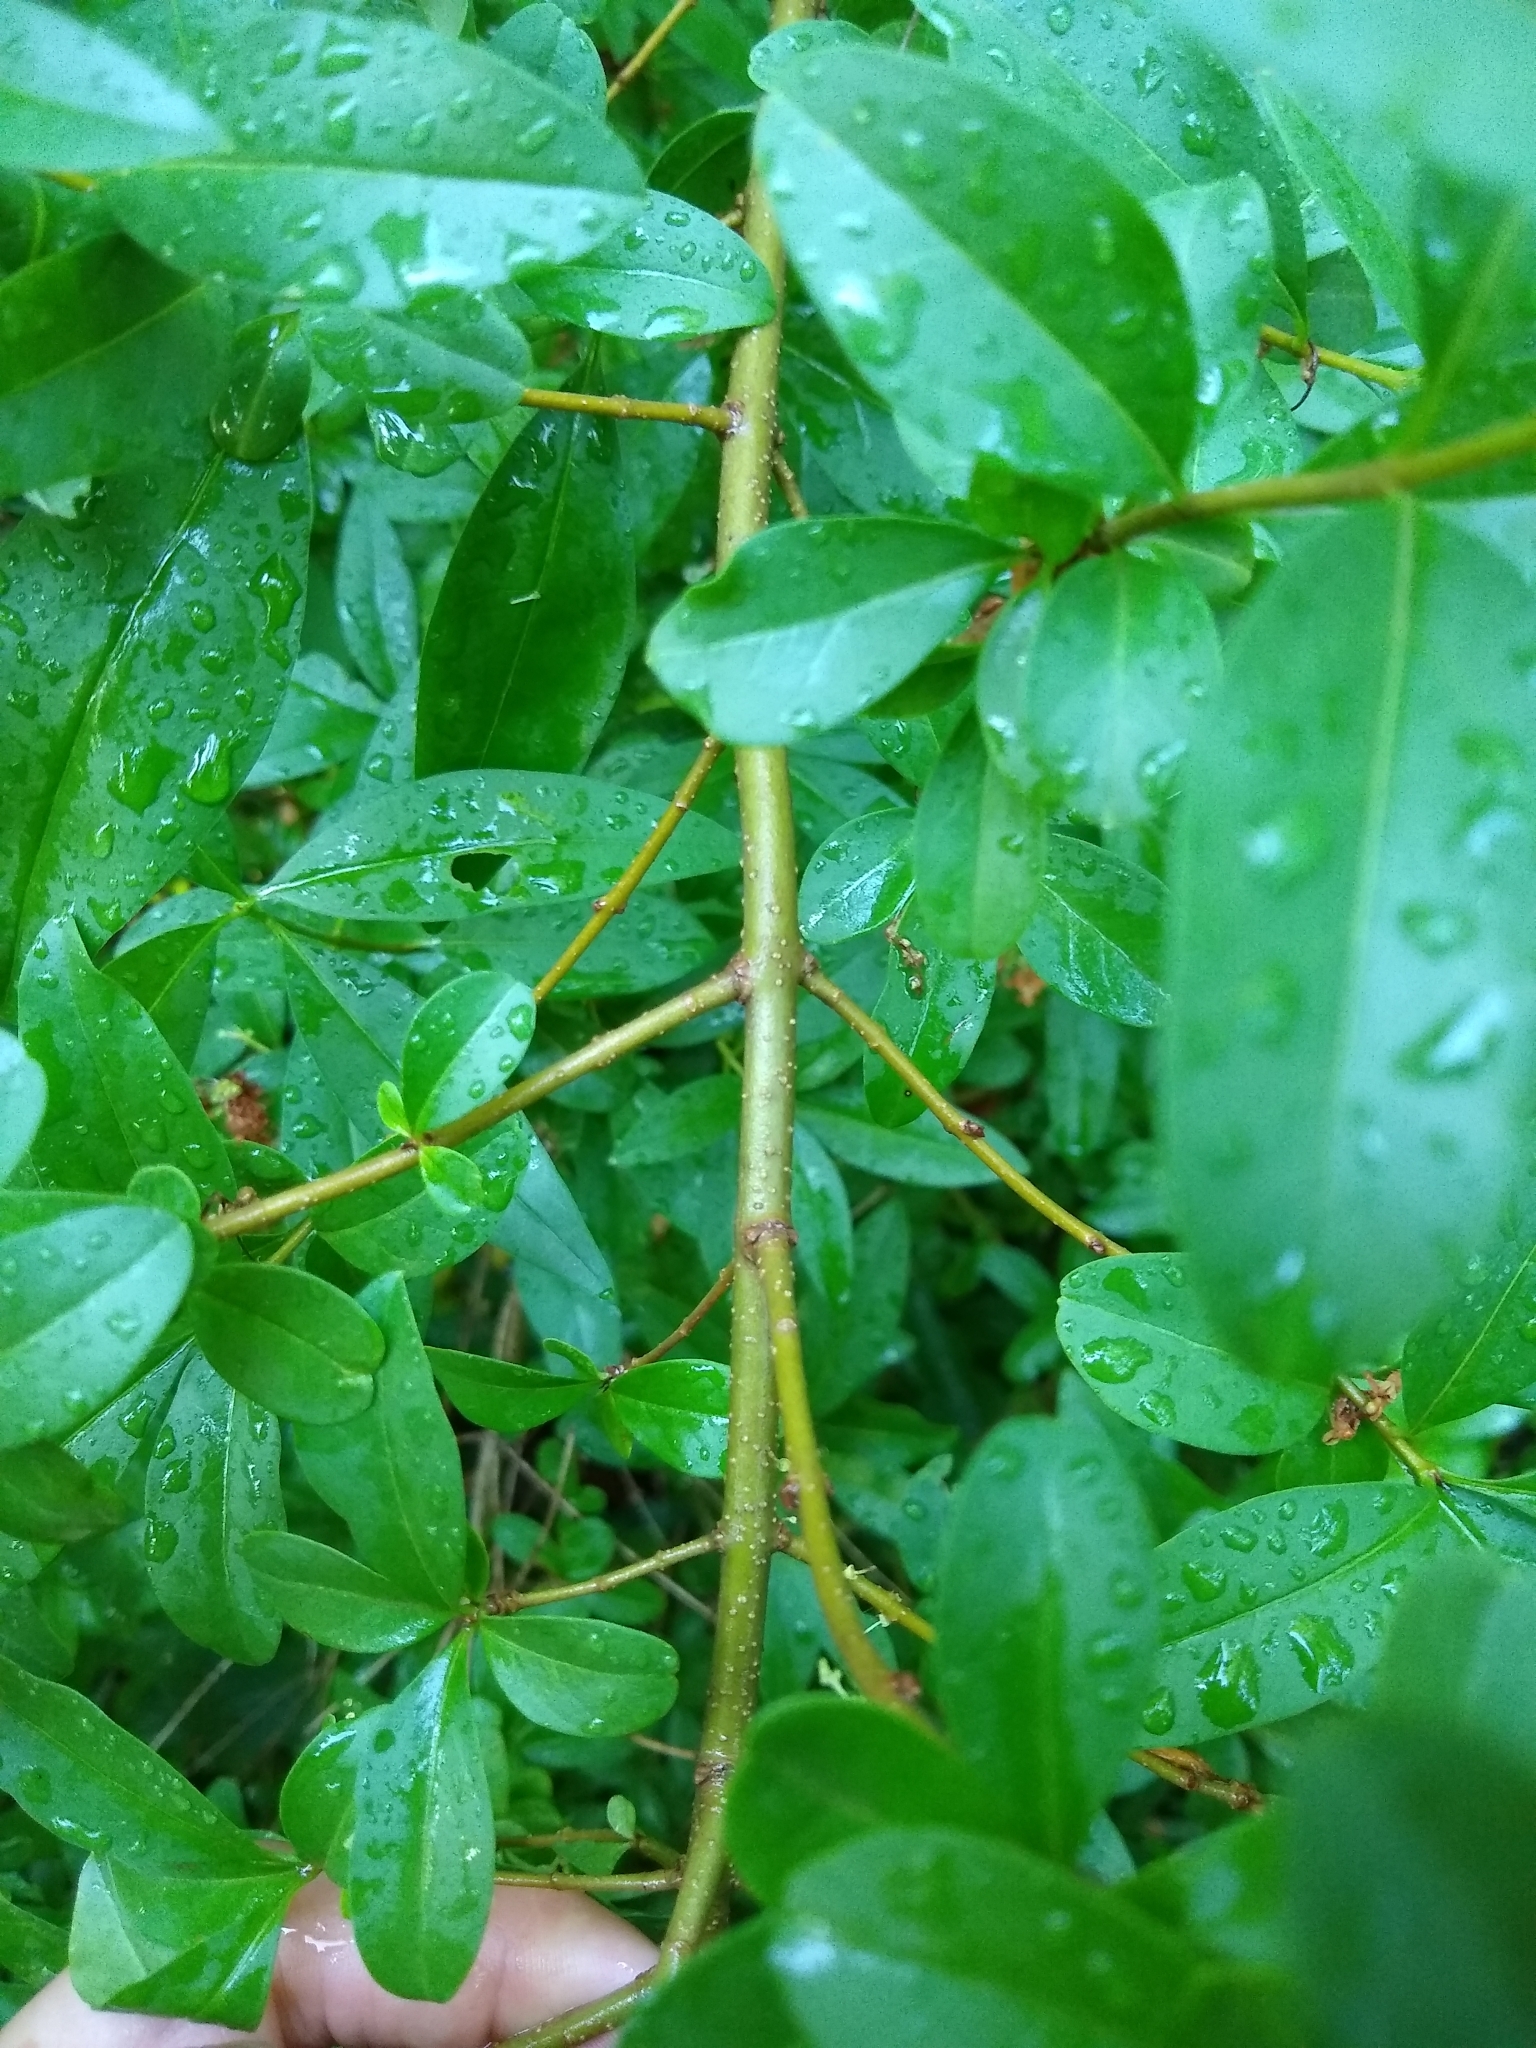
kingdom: Plantae
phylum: Tracheophyta
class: Magnoliopsida
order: Lamiales
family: Oleaceae
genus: Ligustrum
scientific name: Ligustrum vulgare
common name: Wild privet
